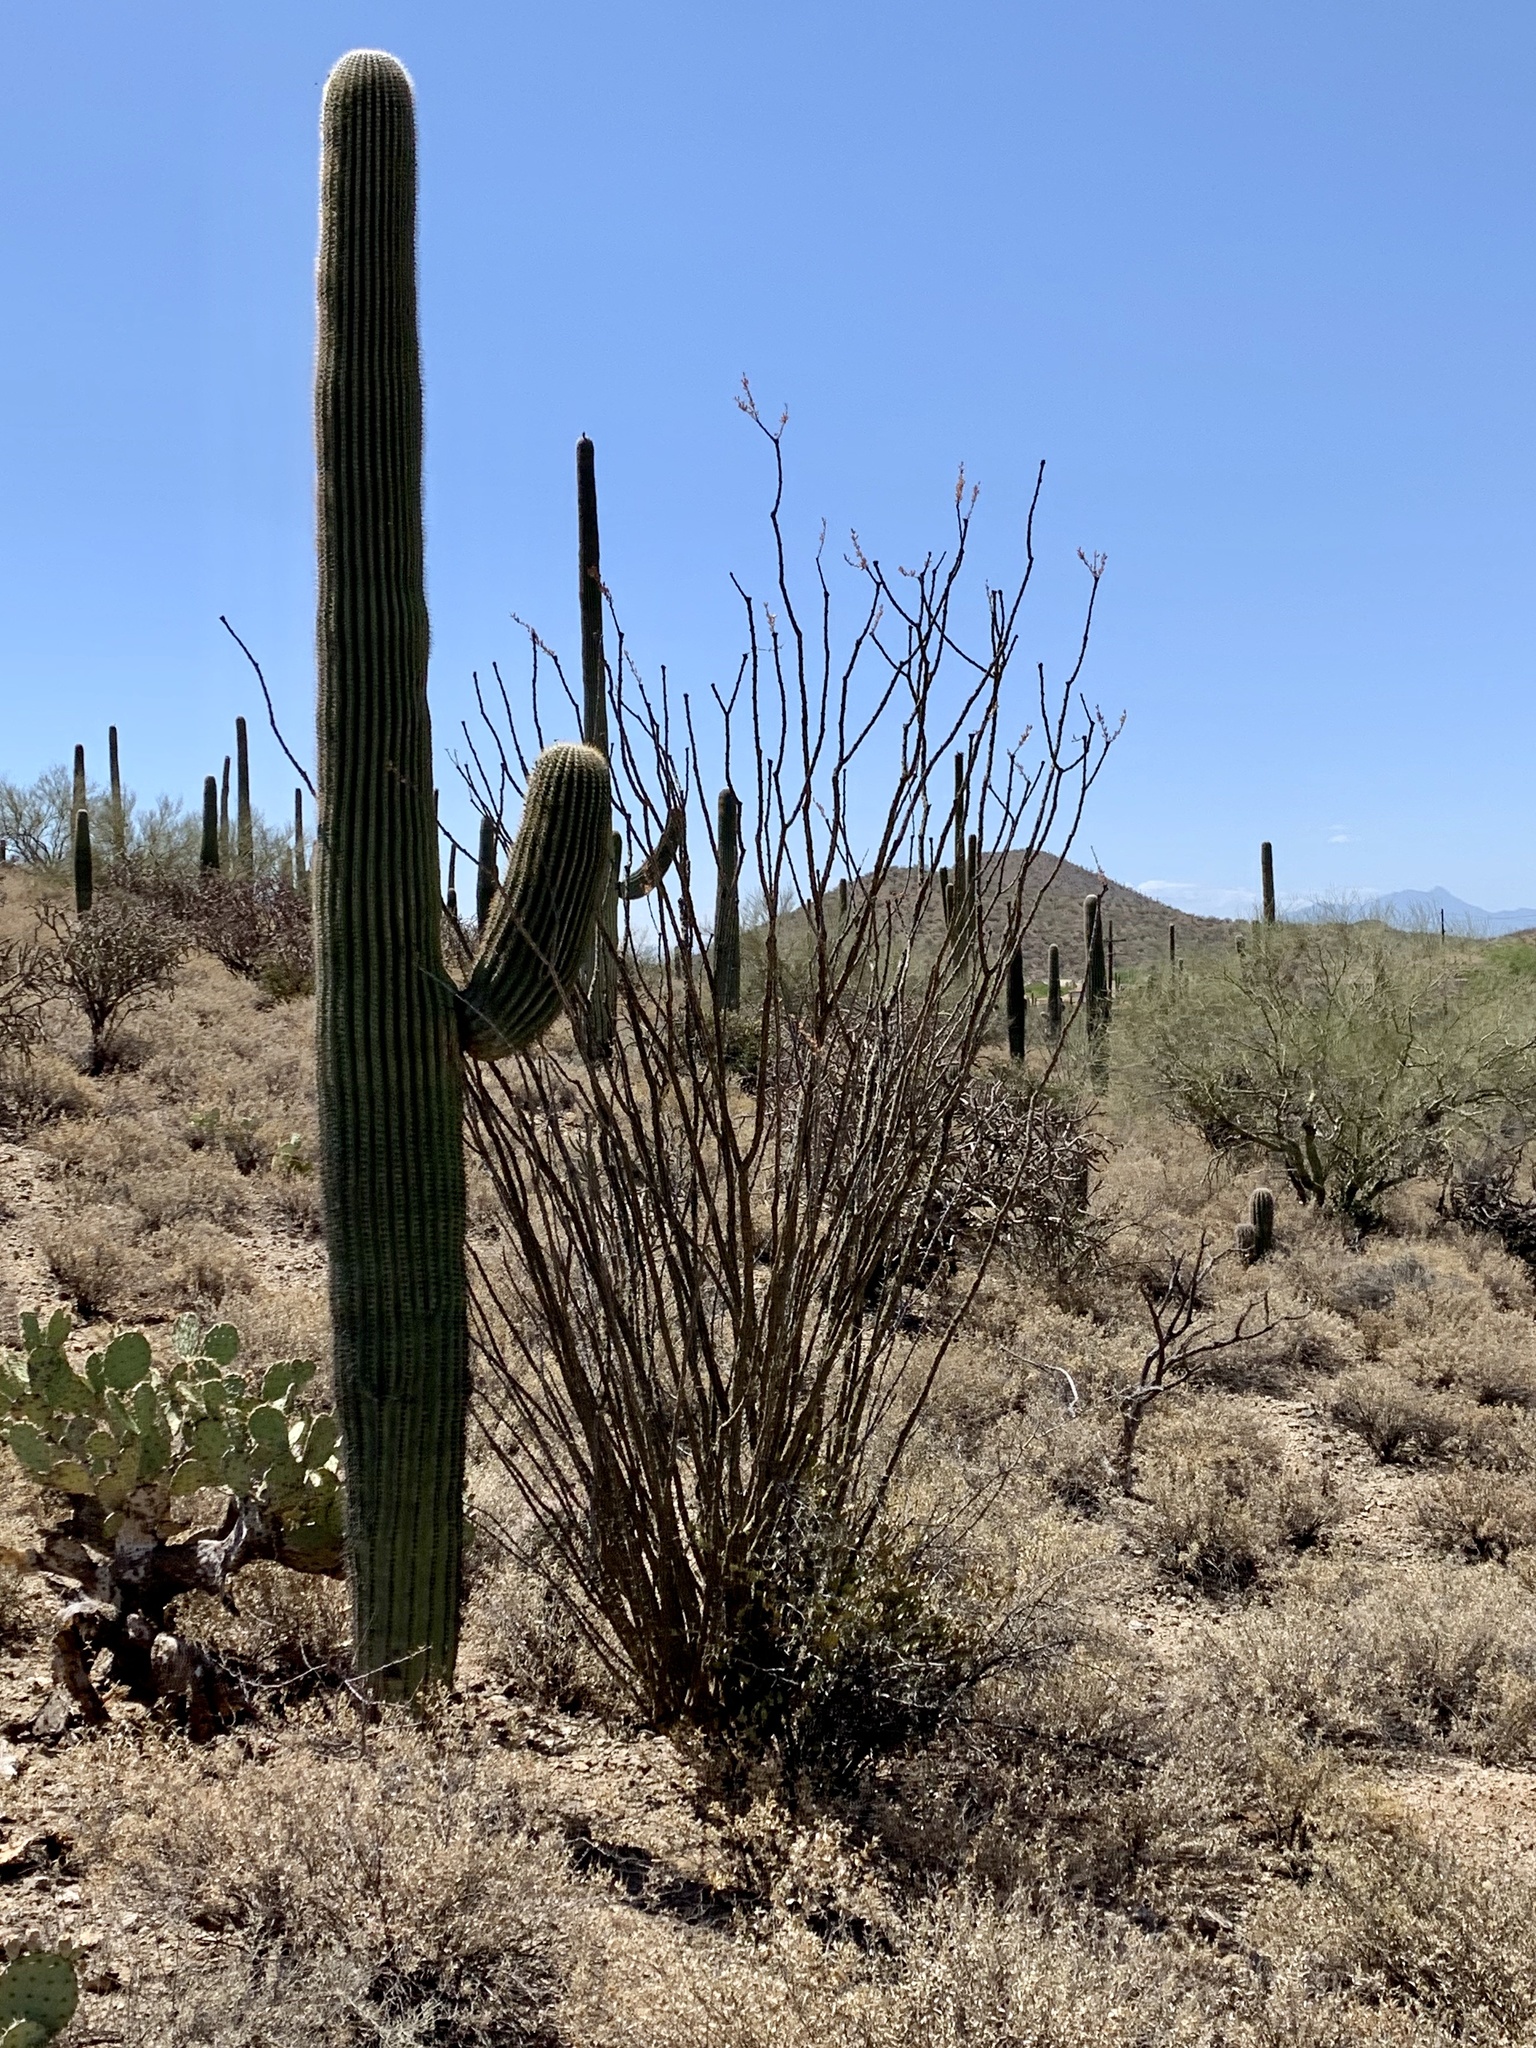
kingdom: Plantae
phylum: Tracheophyta
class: Magnoliopsida
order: Ericales
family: Fouquieriaceae
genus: Fouquieria
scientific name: Fouquieria splendens
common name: Vine-cactus
